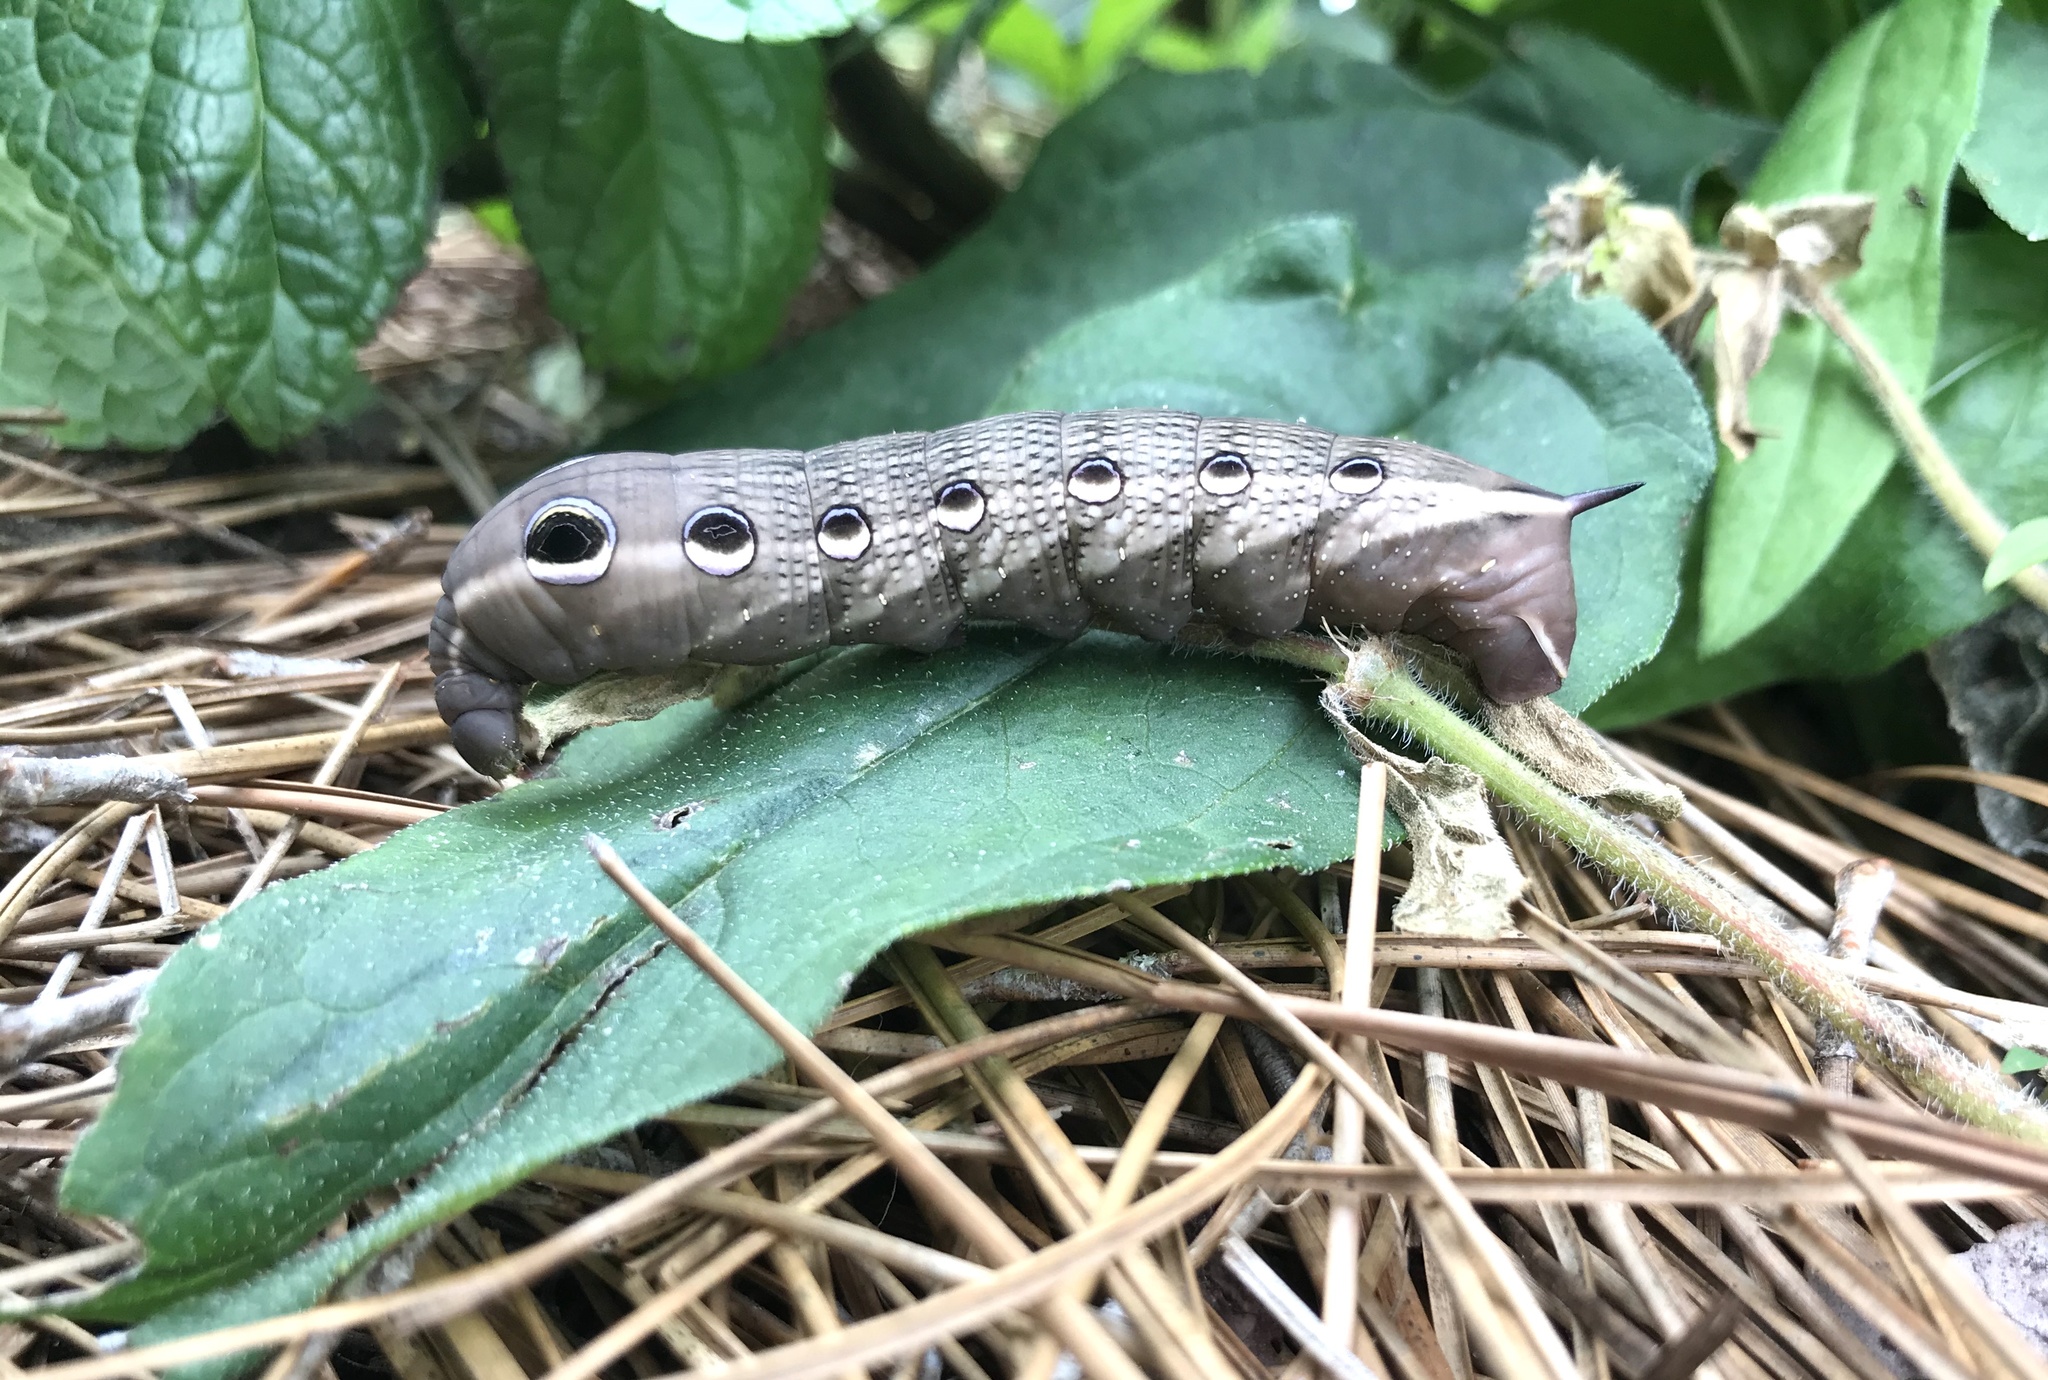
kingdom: Animalia
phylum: Arthropoda
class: Insecta
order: Lepidoptera
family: Sphingidae
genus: Xylophanes
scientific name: Xylophanes tersa
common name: Tersa sphinx
